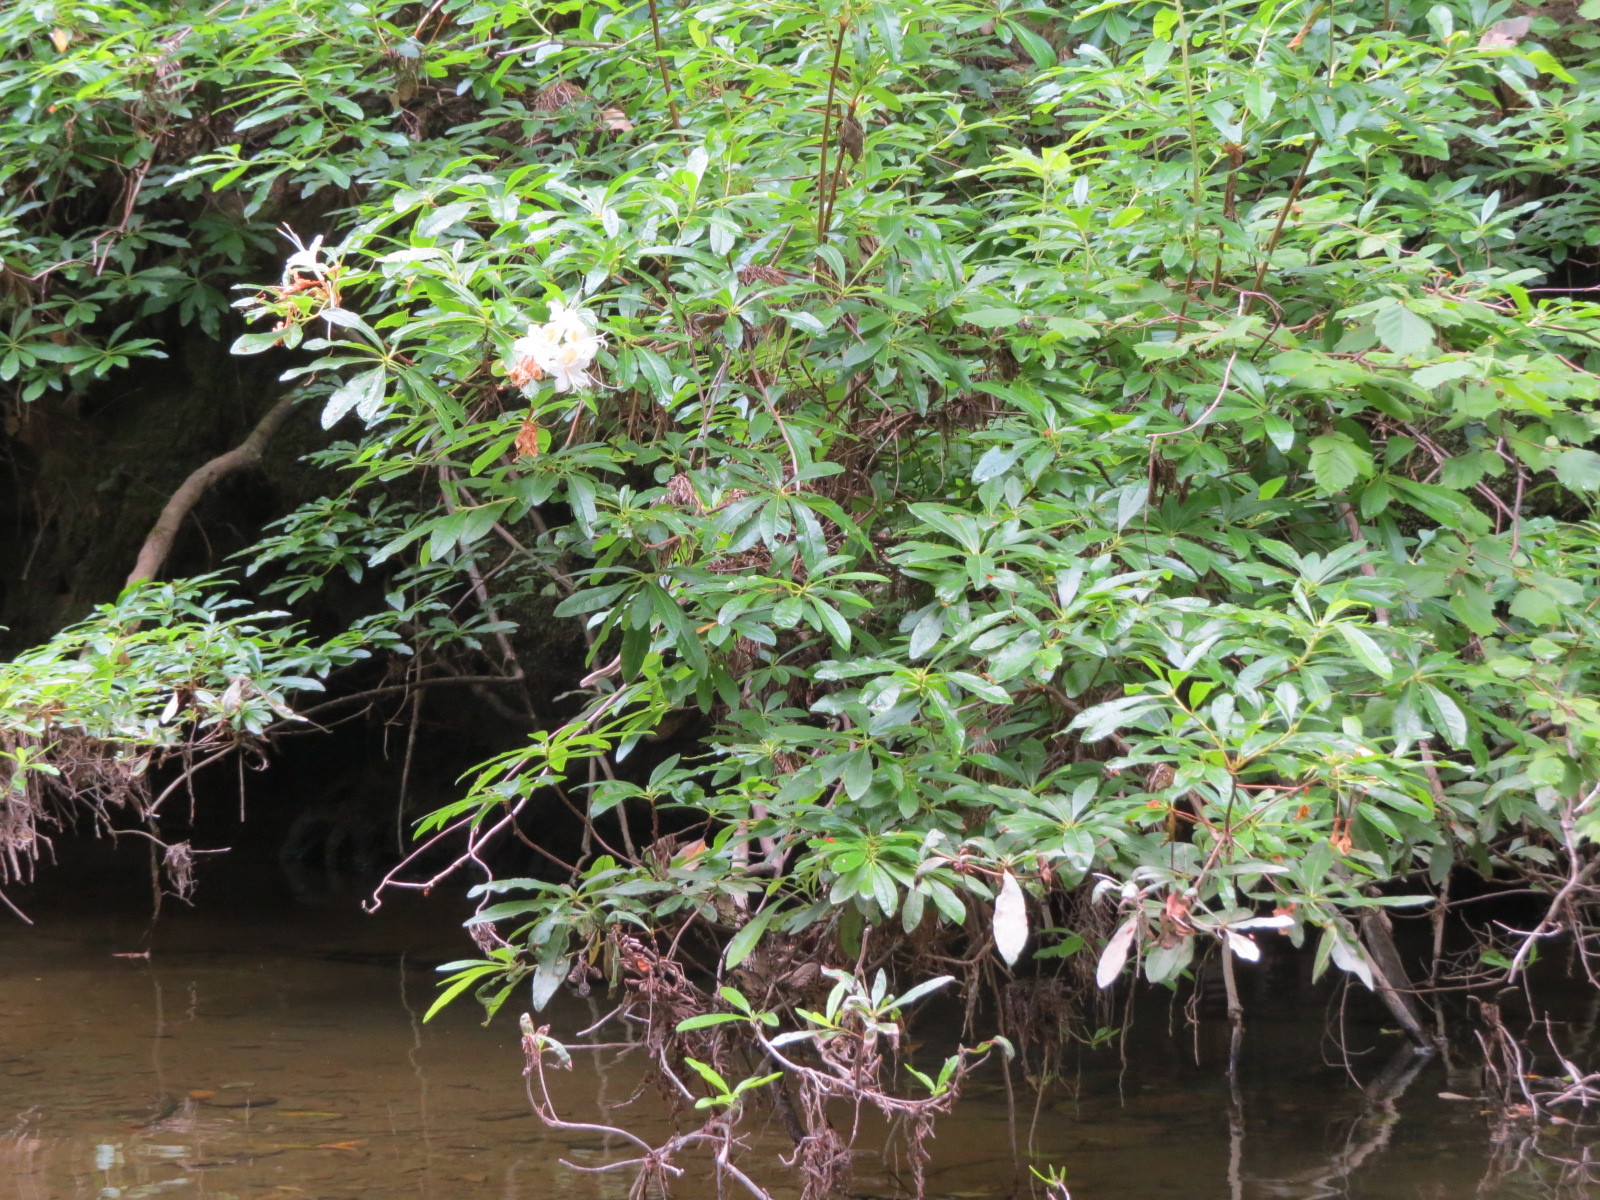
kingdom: Plantae
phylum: Tracheophyta
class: Magnoliopsida
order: Ericales
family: Ericaceae
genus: Rhododendron
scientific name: Rhododendron occidentale
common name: Western azalea
